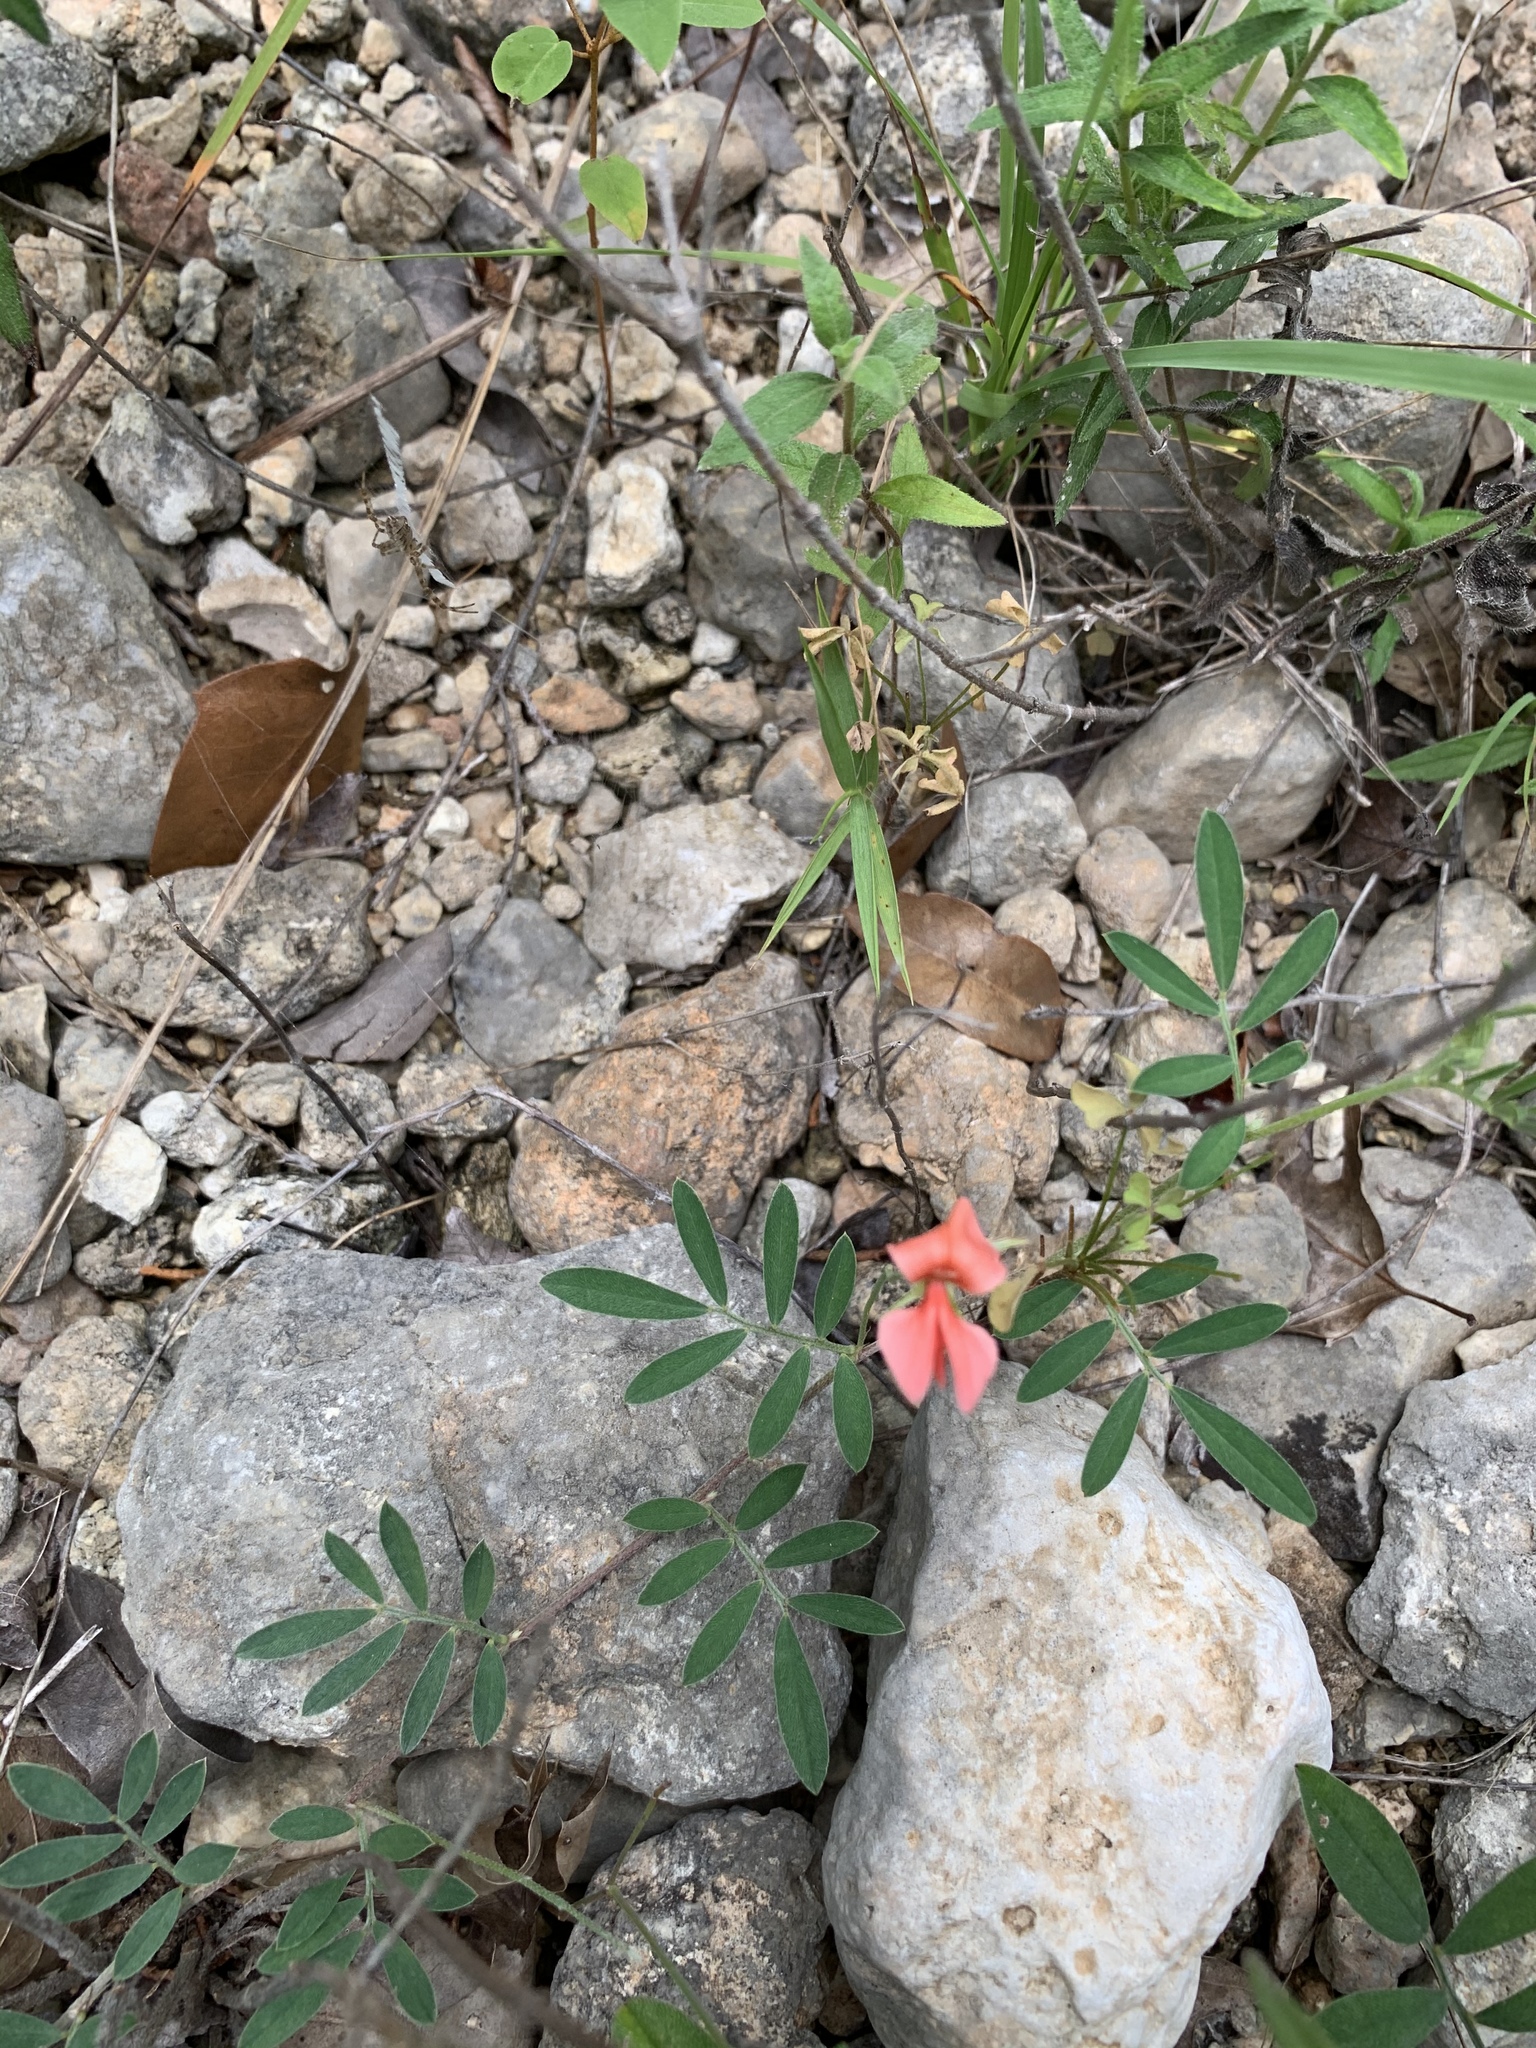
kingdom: Plantae
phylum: Tracheophyta
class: Magnoliopsida
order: Fabales
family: Fabaceae
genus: Indigofera
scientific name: Indigofera miniata
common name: Coast indigo
